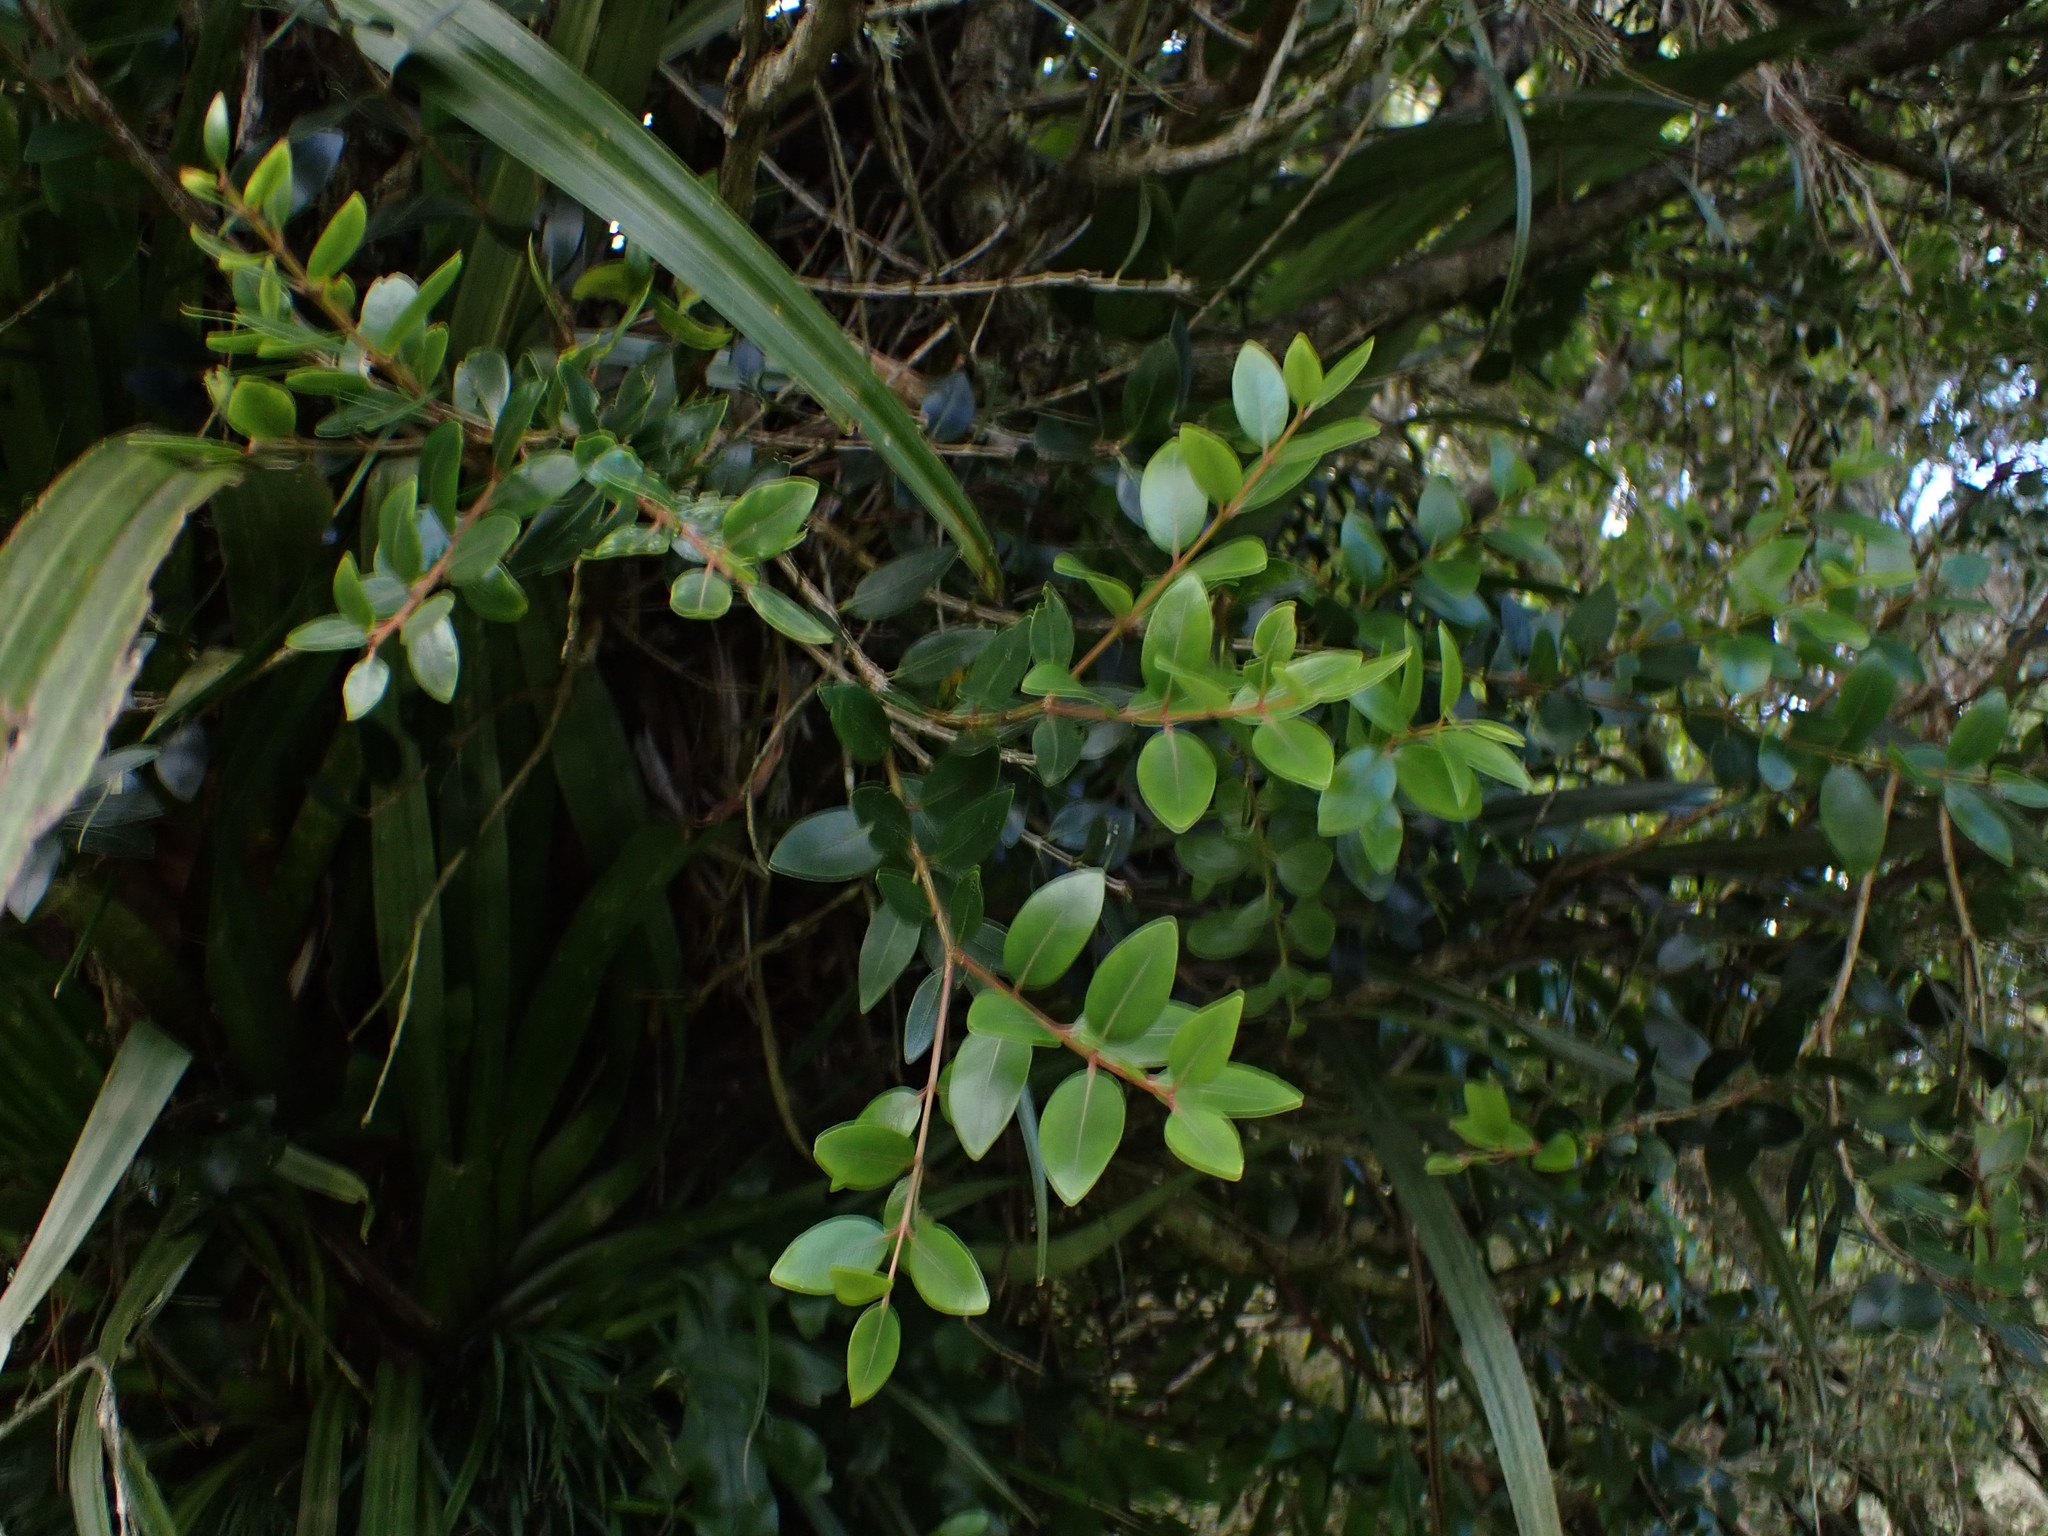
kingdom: Plantae
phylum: Tracheophyta
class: Magnoliopsida
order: Myrtales
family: Myrtaceae
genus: Metrosideros
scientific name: Metrosideros robusta
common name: Northern rata
